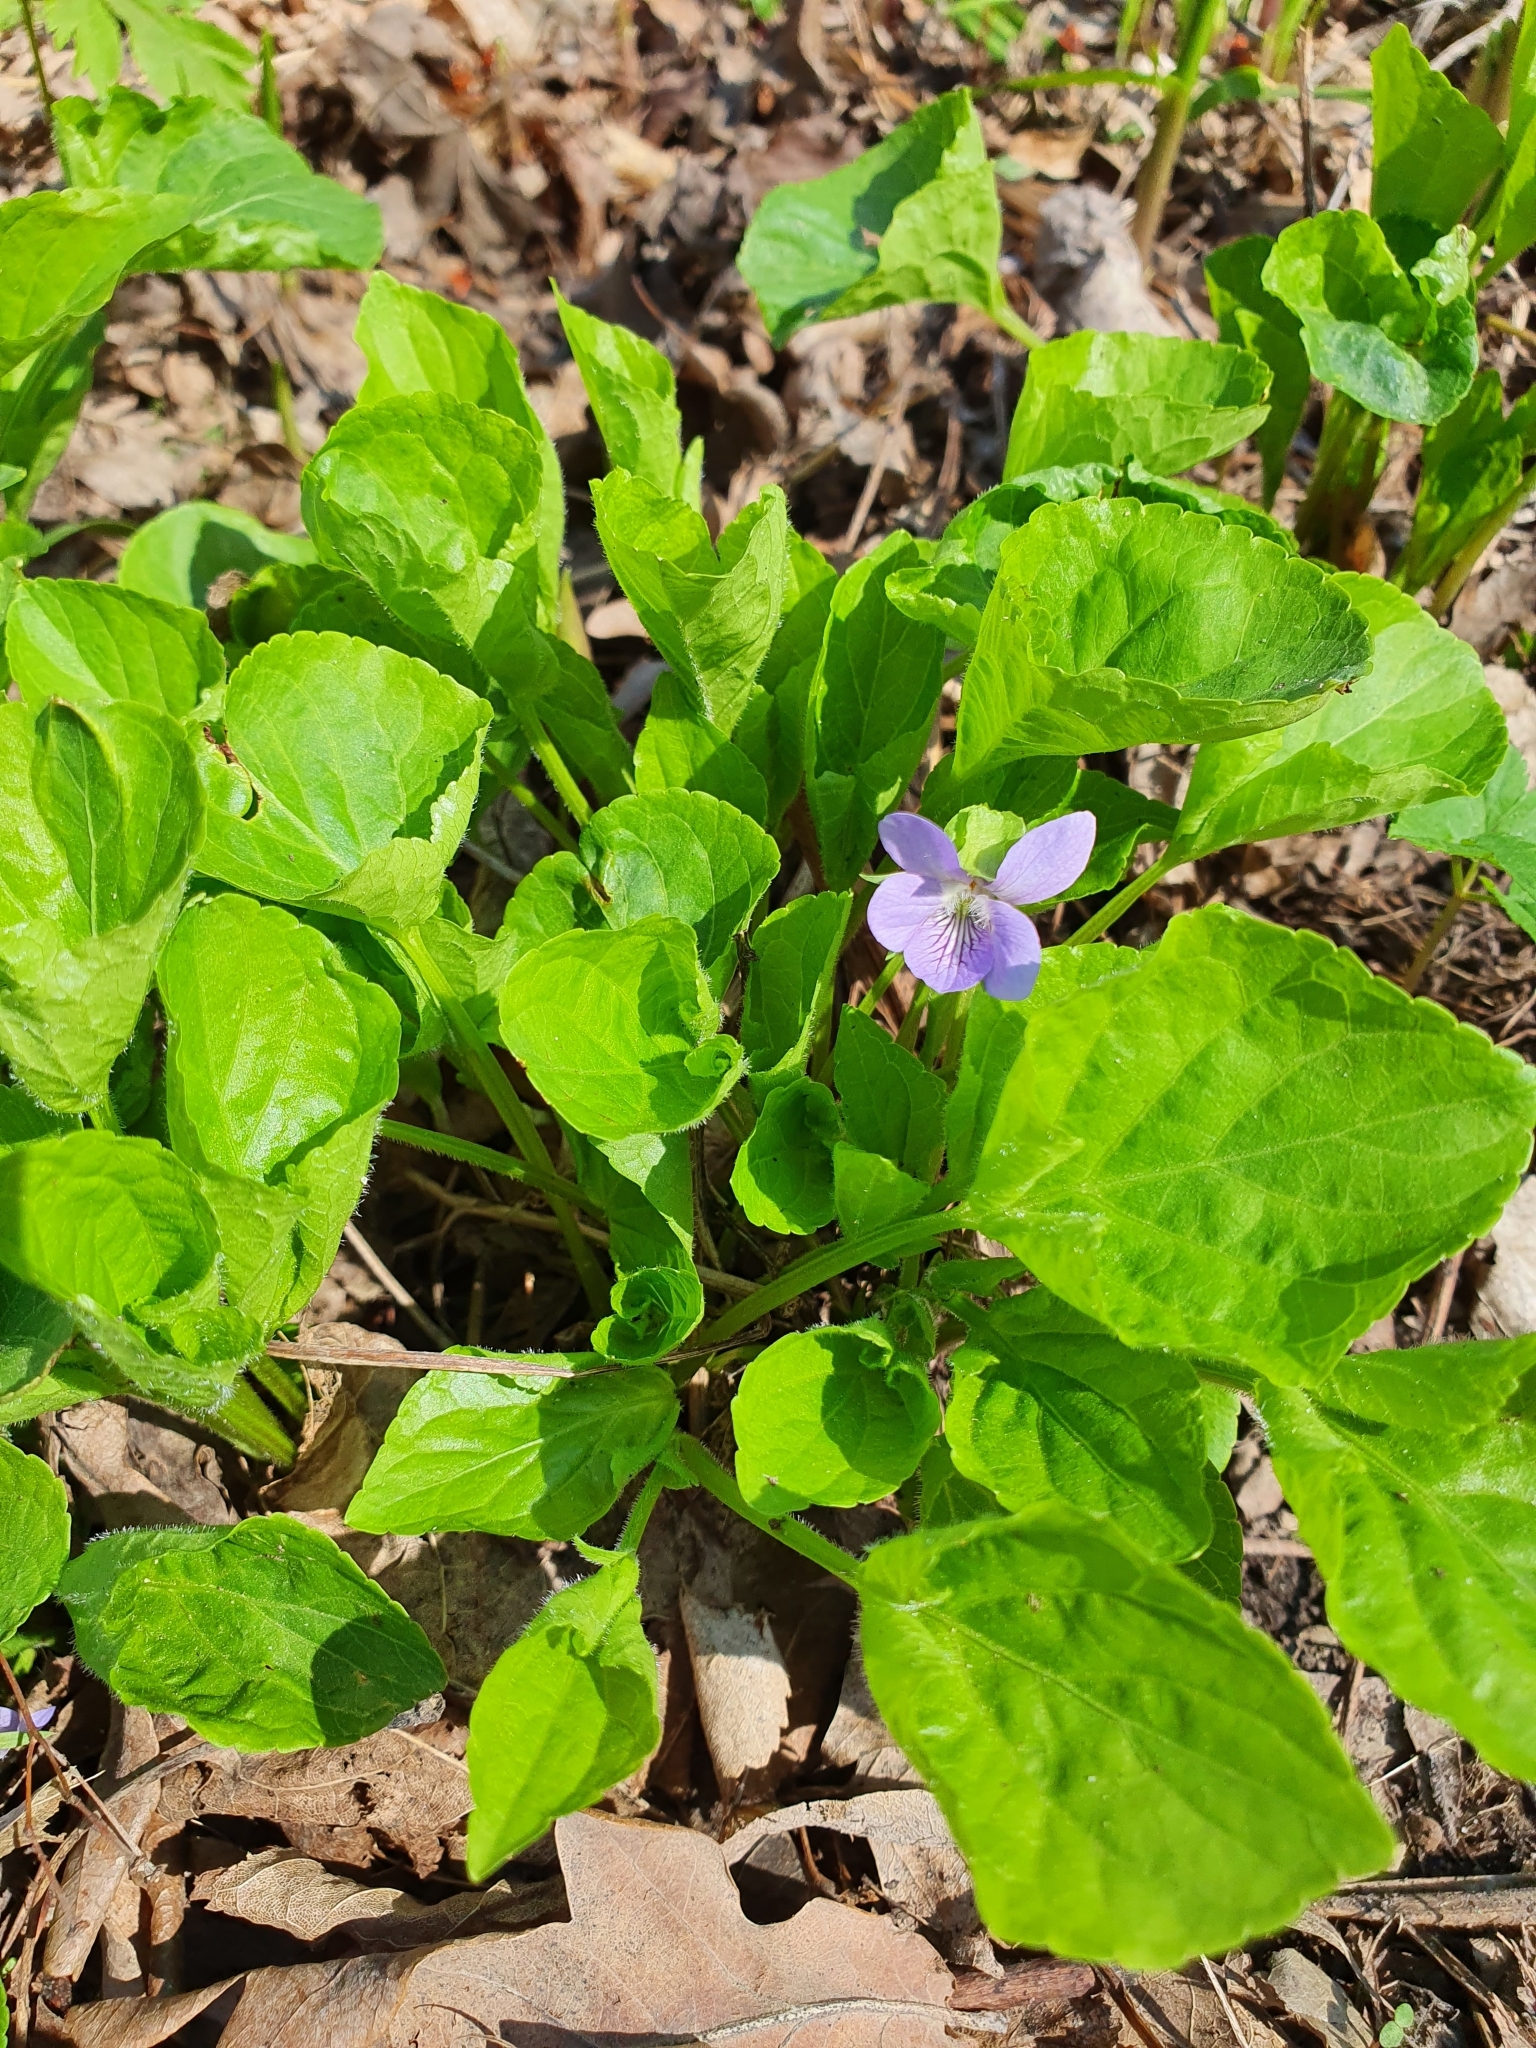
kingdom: Plantae
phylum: Tracheophyta
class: Magnoliopsida
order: Malpighiales
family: Violaceae
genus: Viola
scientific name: Viola mirabilis
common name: Wonder violet
